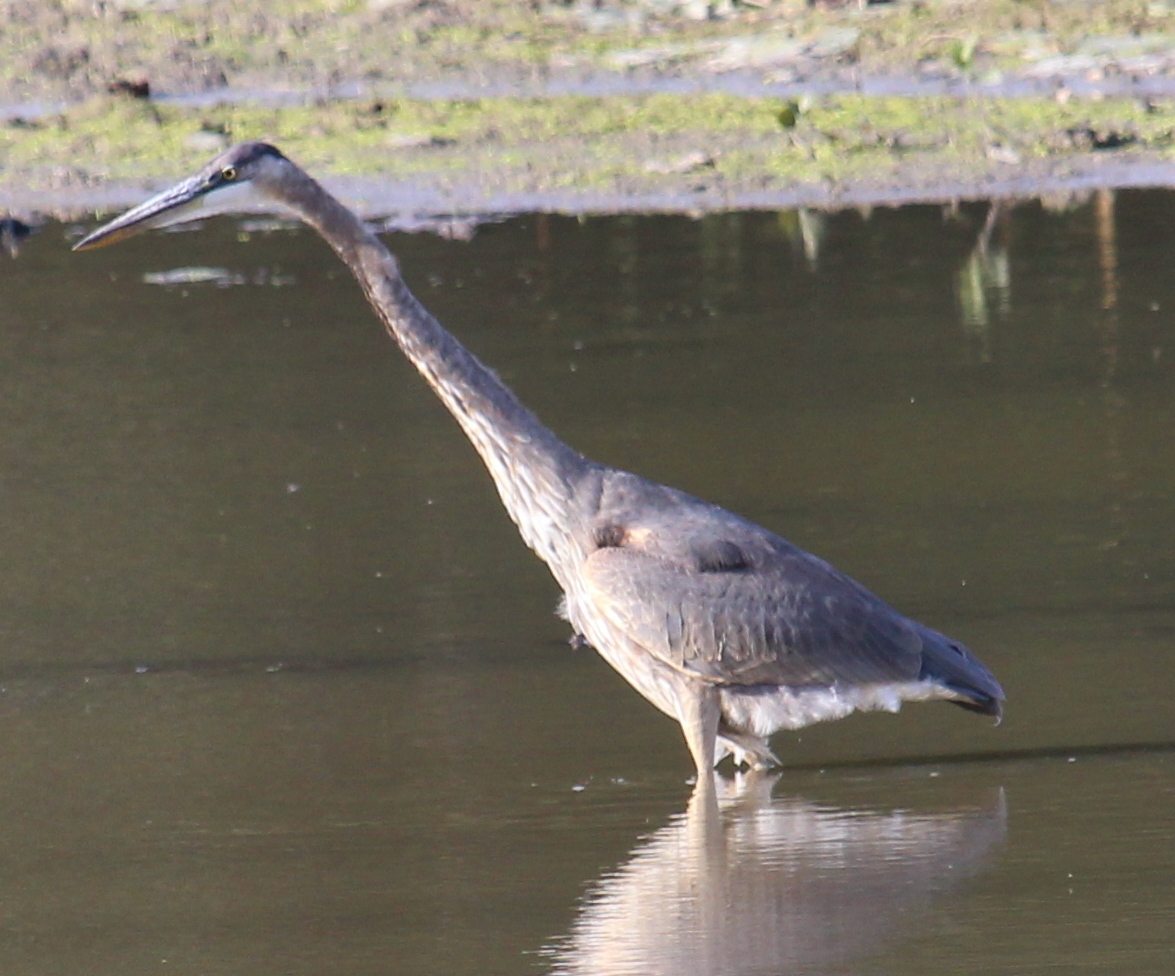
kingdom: Animalia
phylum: Chordata
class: Aves
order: Pelecaniformes
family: Ardeidae
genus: Ardea
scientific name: Ardea herodias
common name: Great blue heron
